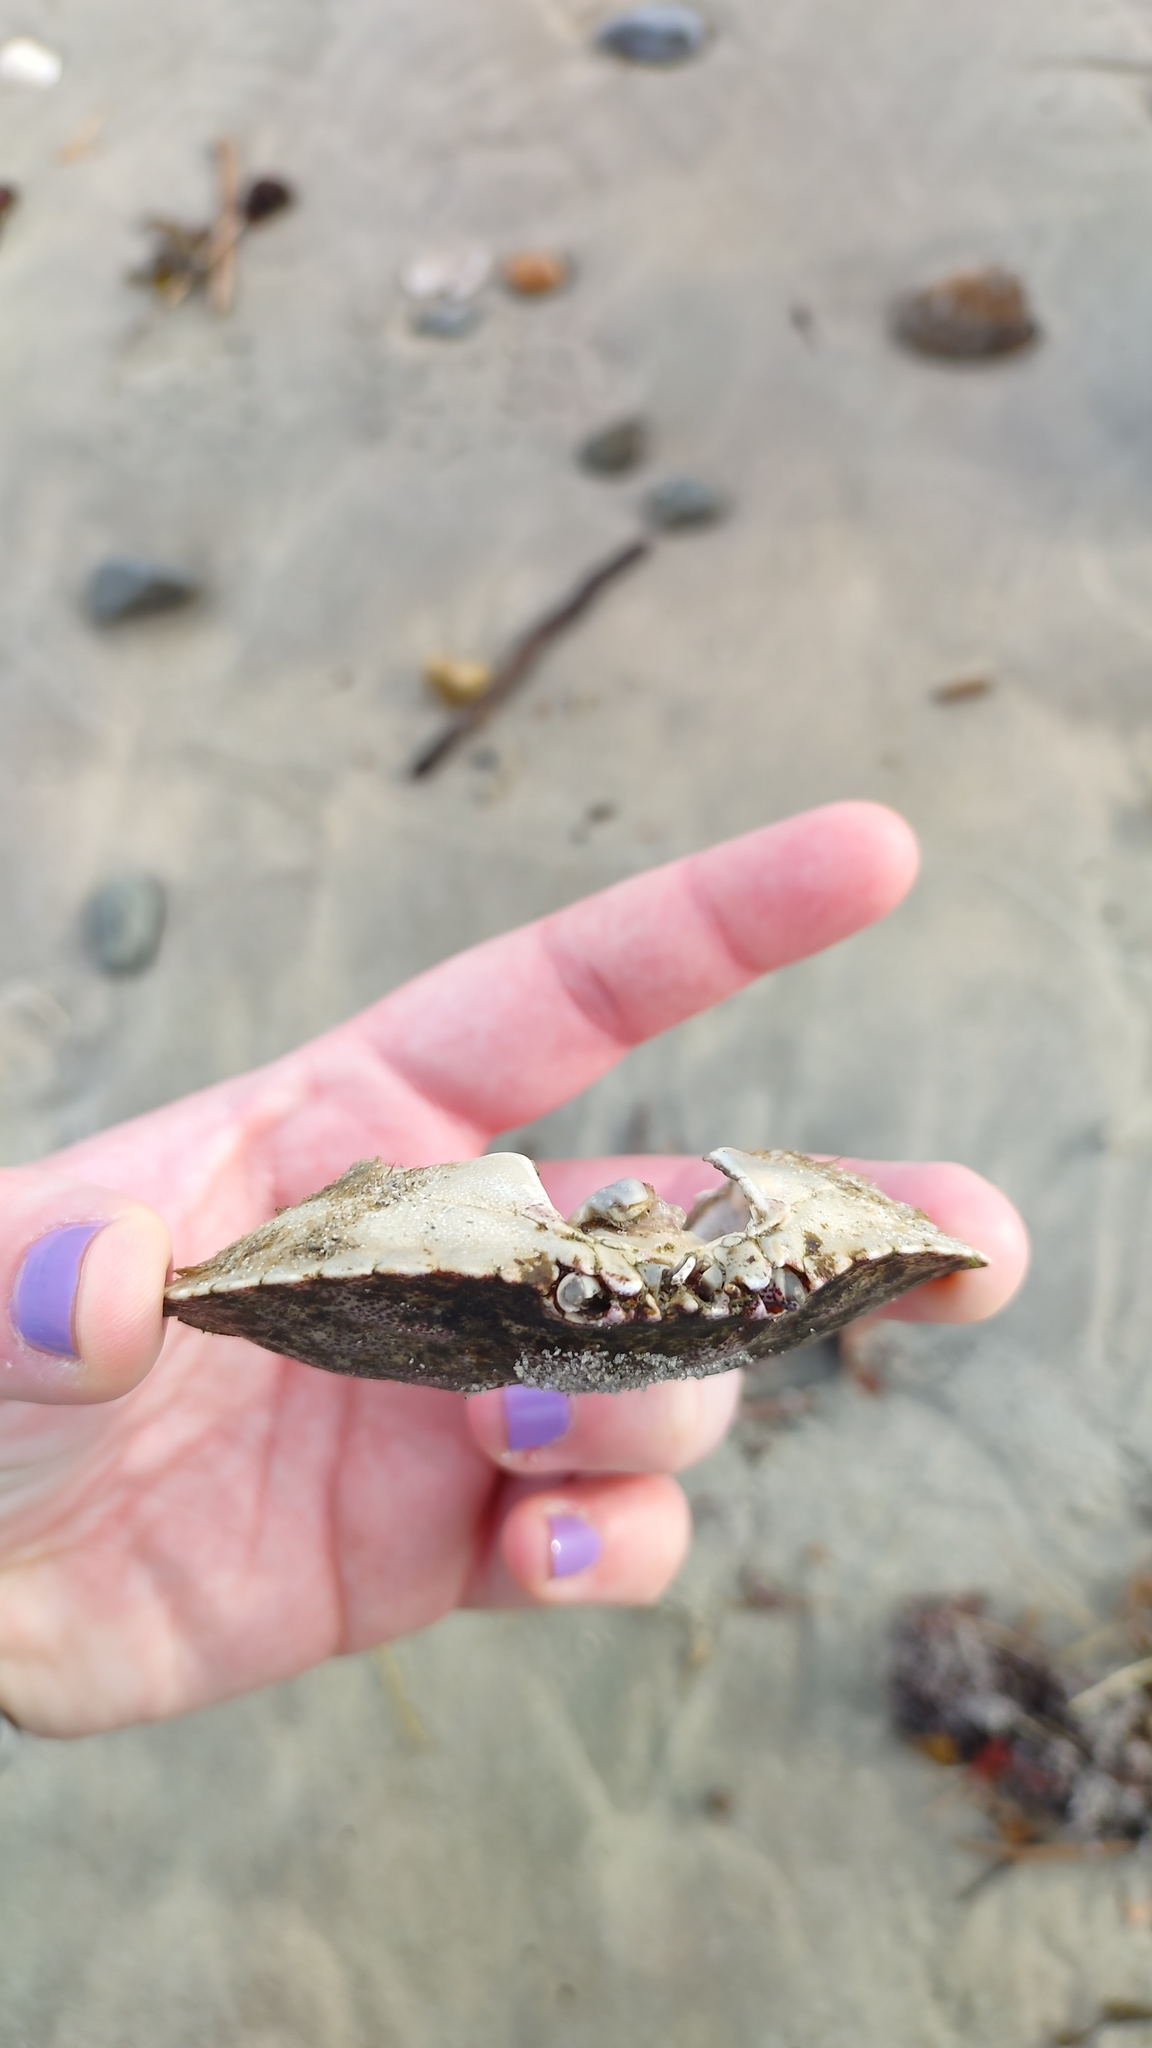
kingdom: Animalia
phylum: Arthropoda
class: Malacostraca
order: Decapoda
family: Cancridae
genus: Cancer
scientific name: Cancer irroratus
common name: Atlantic rock crab
